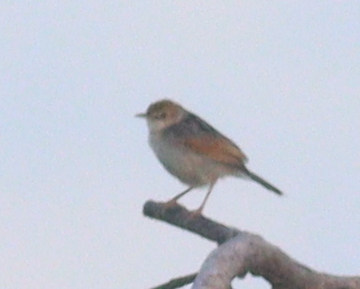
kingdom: Animalia
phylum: Chordata
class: Aves
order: Passeriformes
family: Cisticolidae
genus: Cisticola
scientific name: Cisticola marginatus
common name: Winding cisticola
